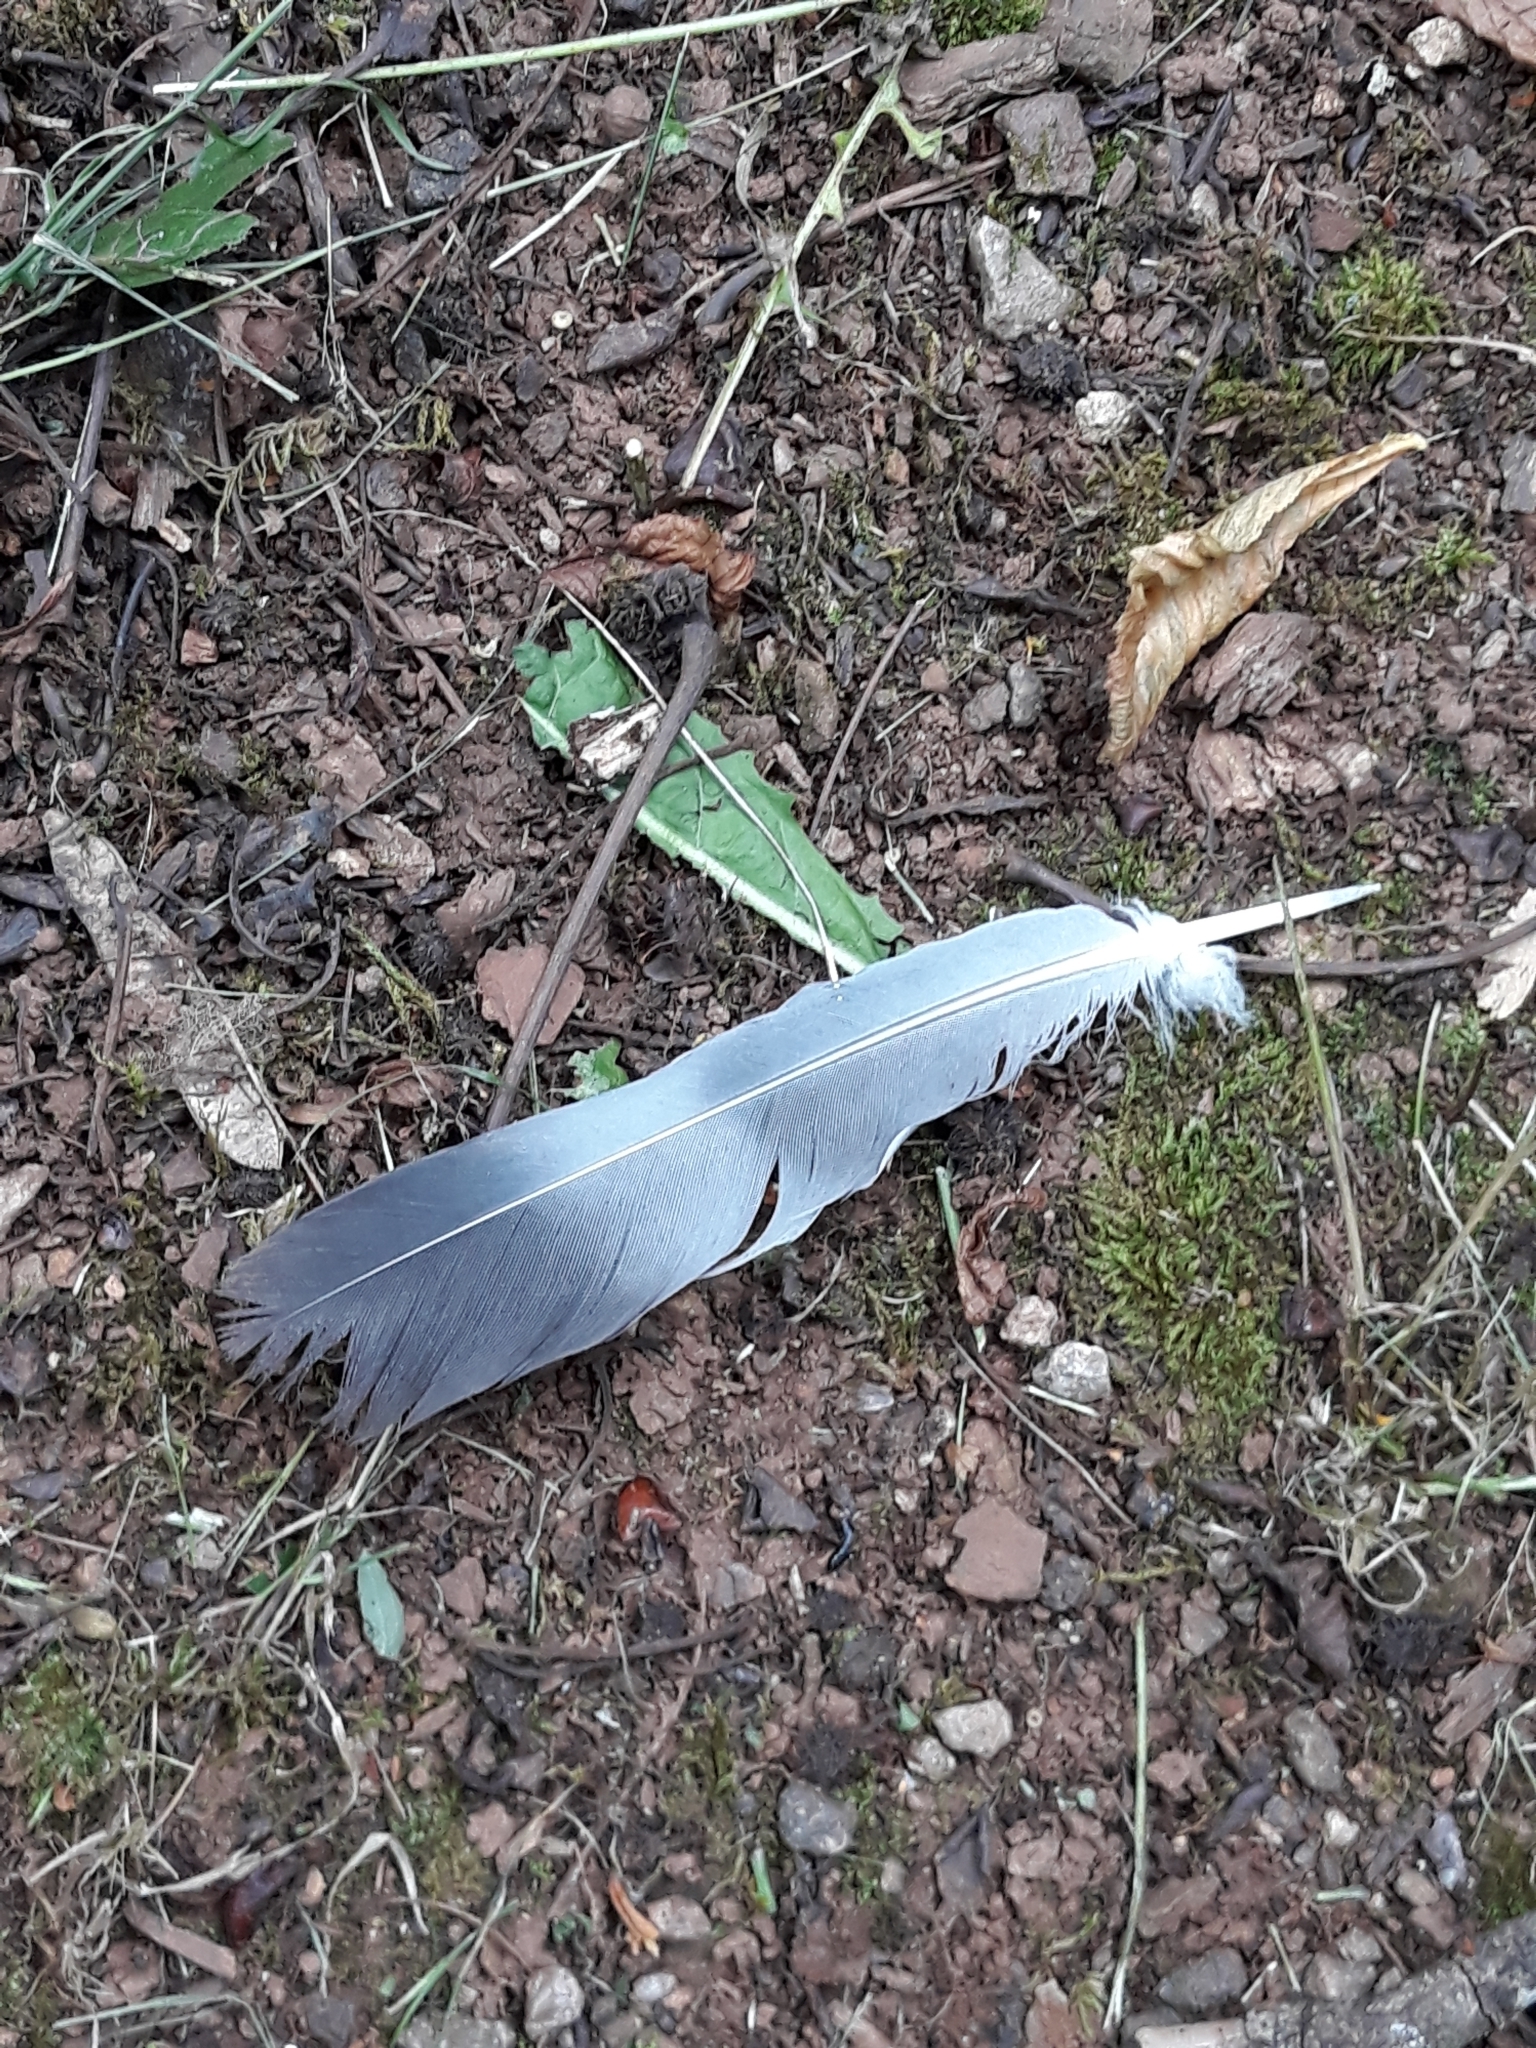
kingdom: Animalia
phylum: Chordata
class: Aves
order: Columbiformes
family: Columbidae
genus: Columba
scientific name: Columba palumbus
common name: Common wood pigeon
